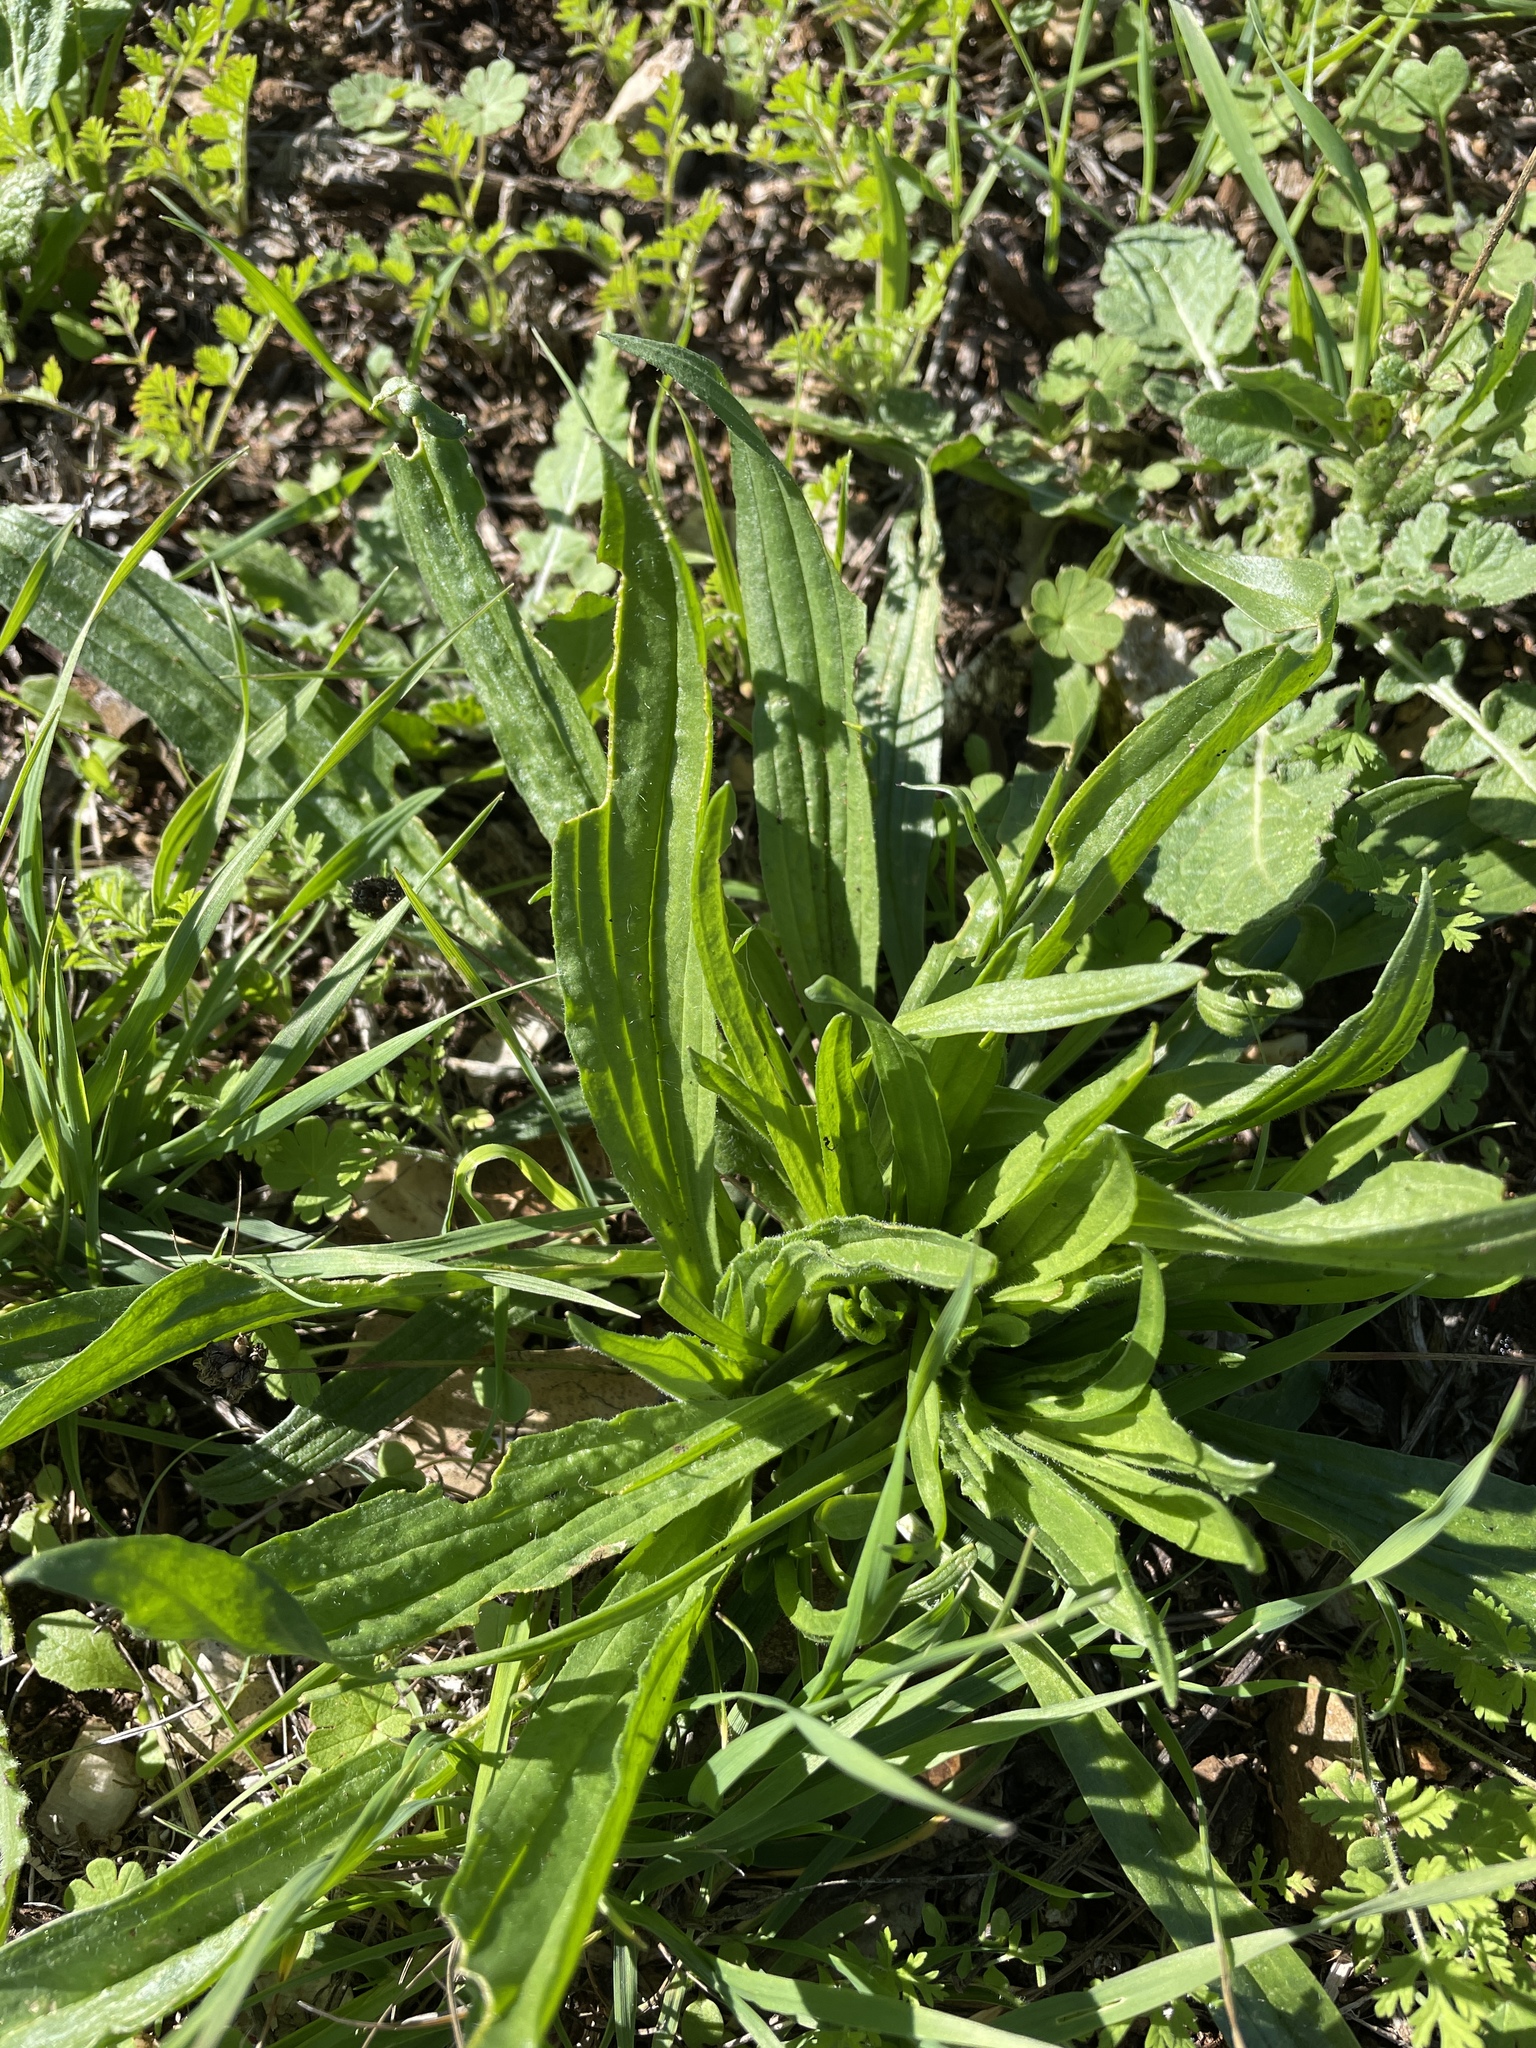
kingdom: Plantae
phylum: Tracheophyta
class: Magnoliopsida
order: Lamiales
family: Plantaginaceae
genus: Plantago
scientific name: Plantago lanceolata
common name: Ribwort plantain
